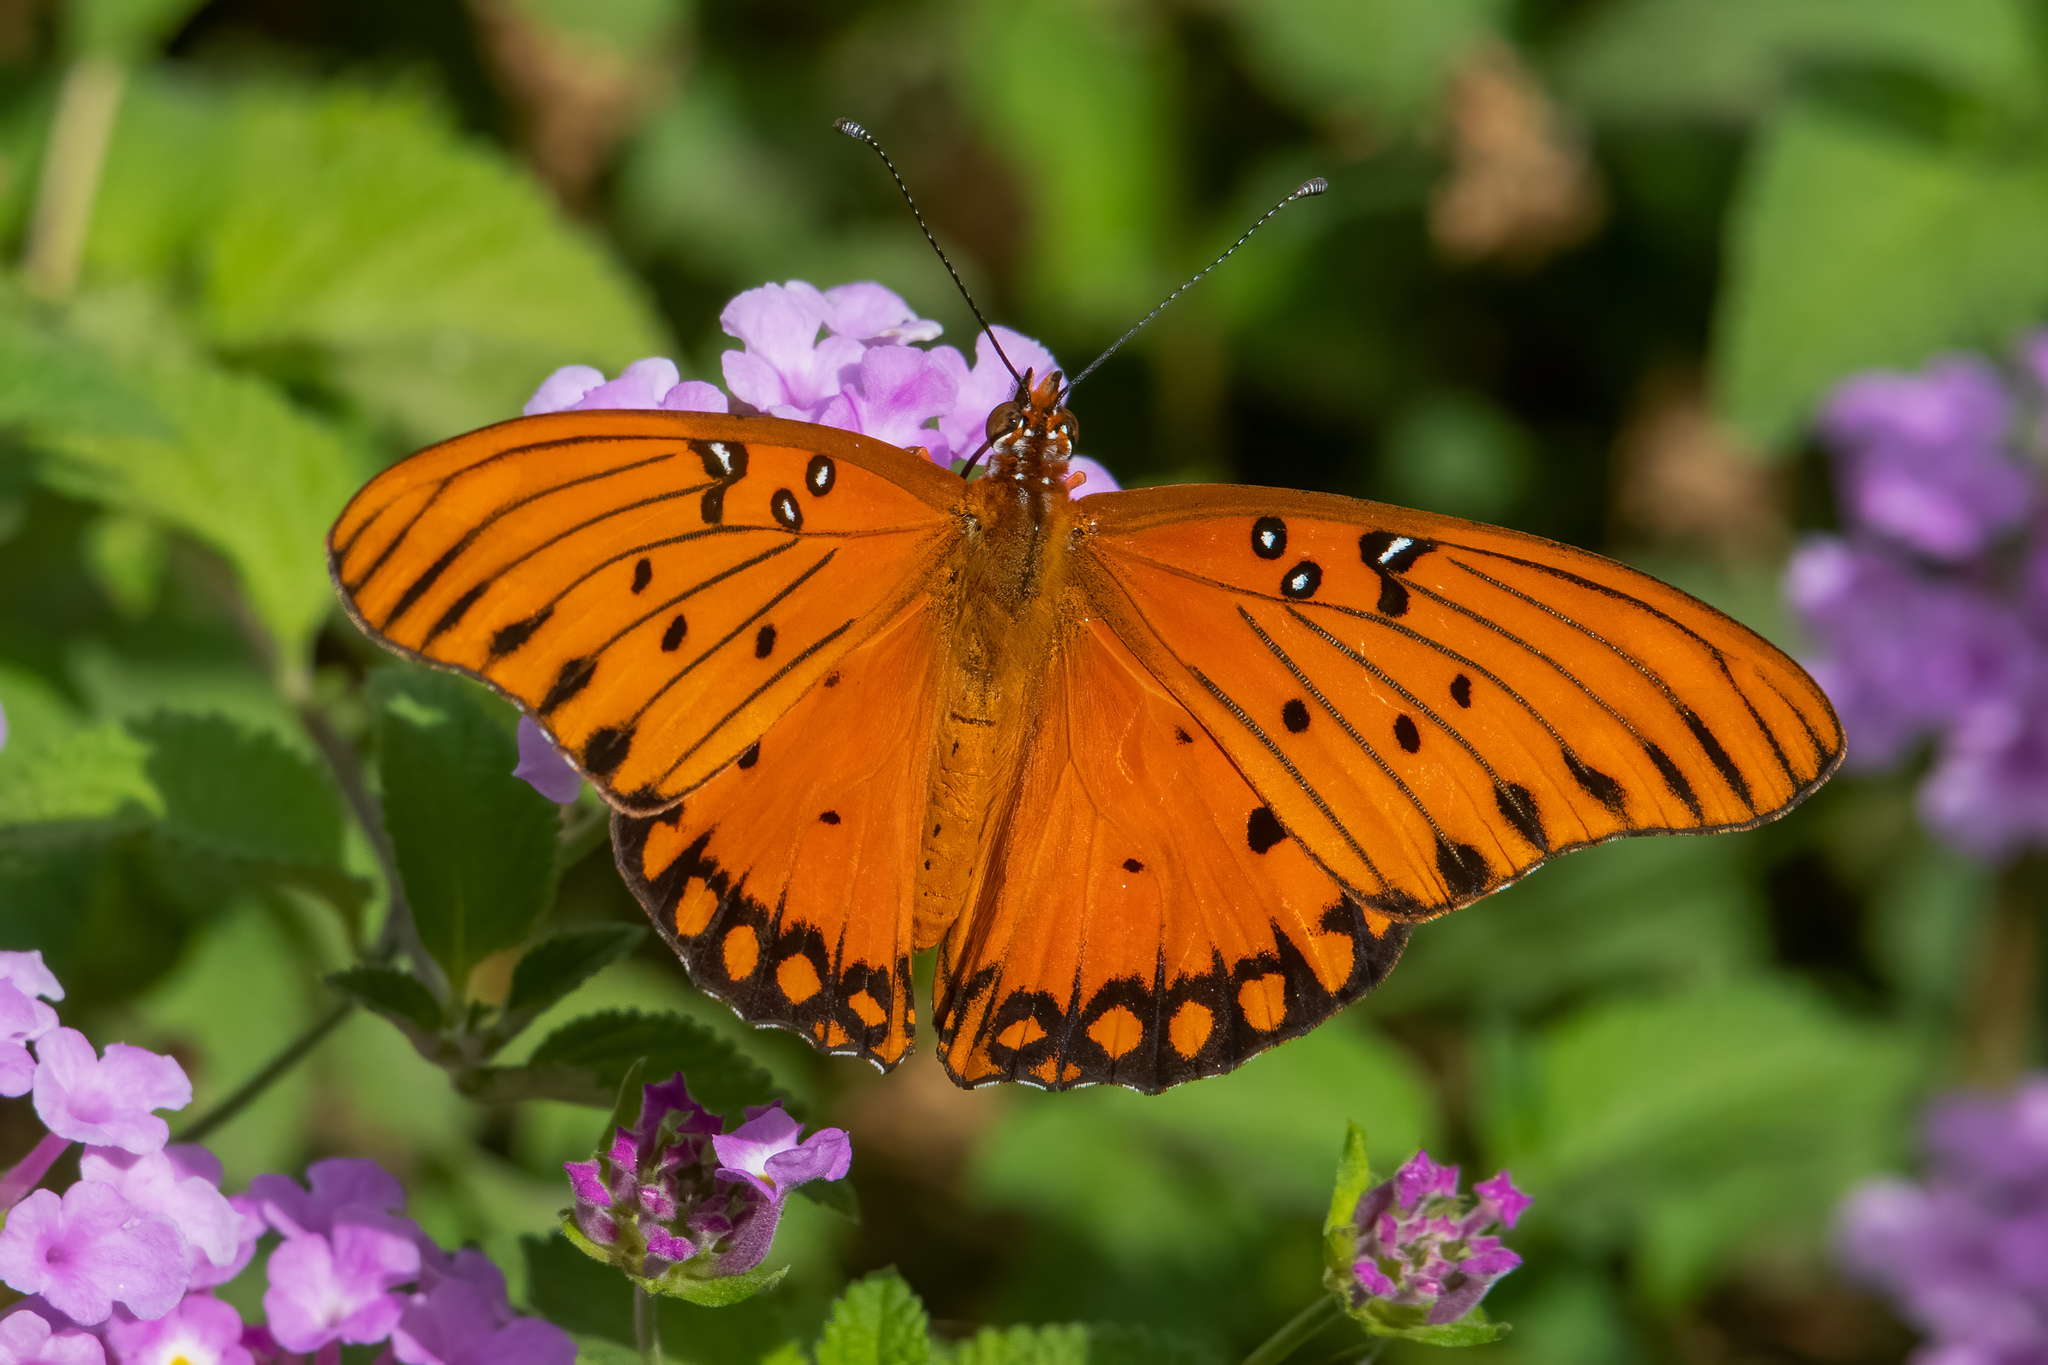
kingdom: Animalia
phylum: Arthropoda
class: Insecta
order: Lepidoptera
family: Nymphalidae
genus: Dione
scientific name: Dione vanillae
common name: Gulf fritillary
